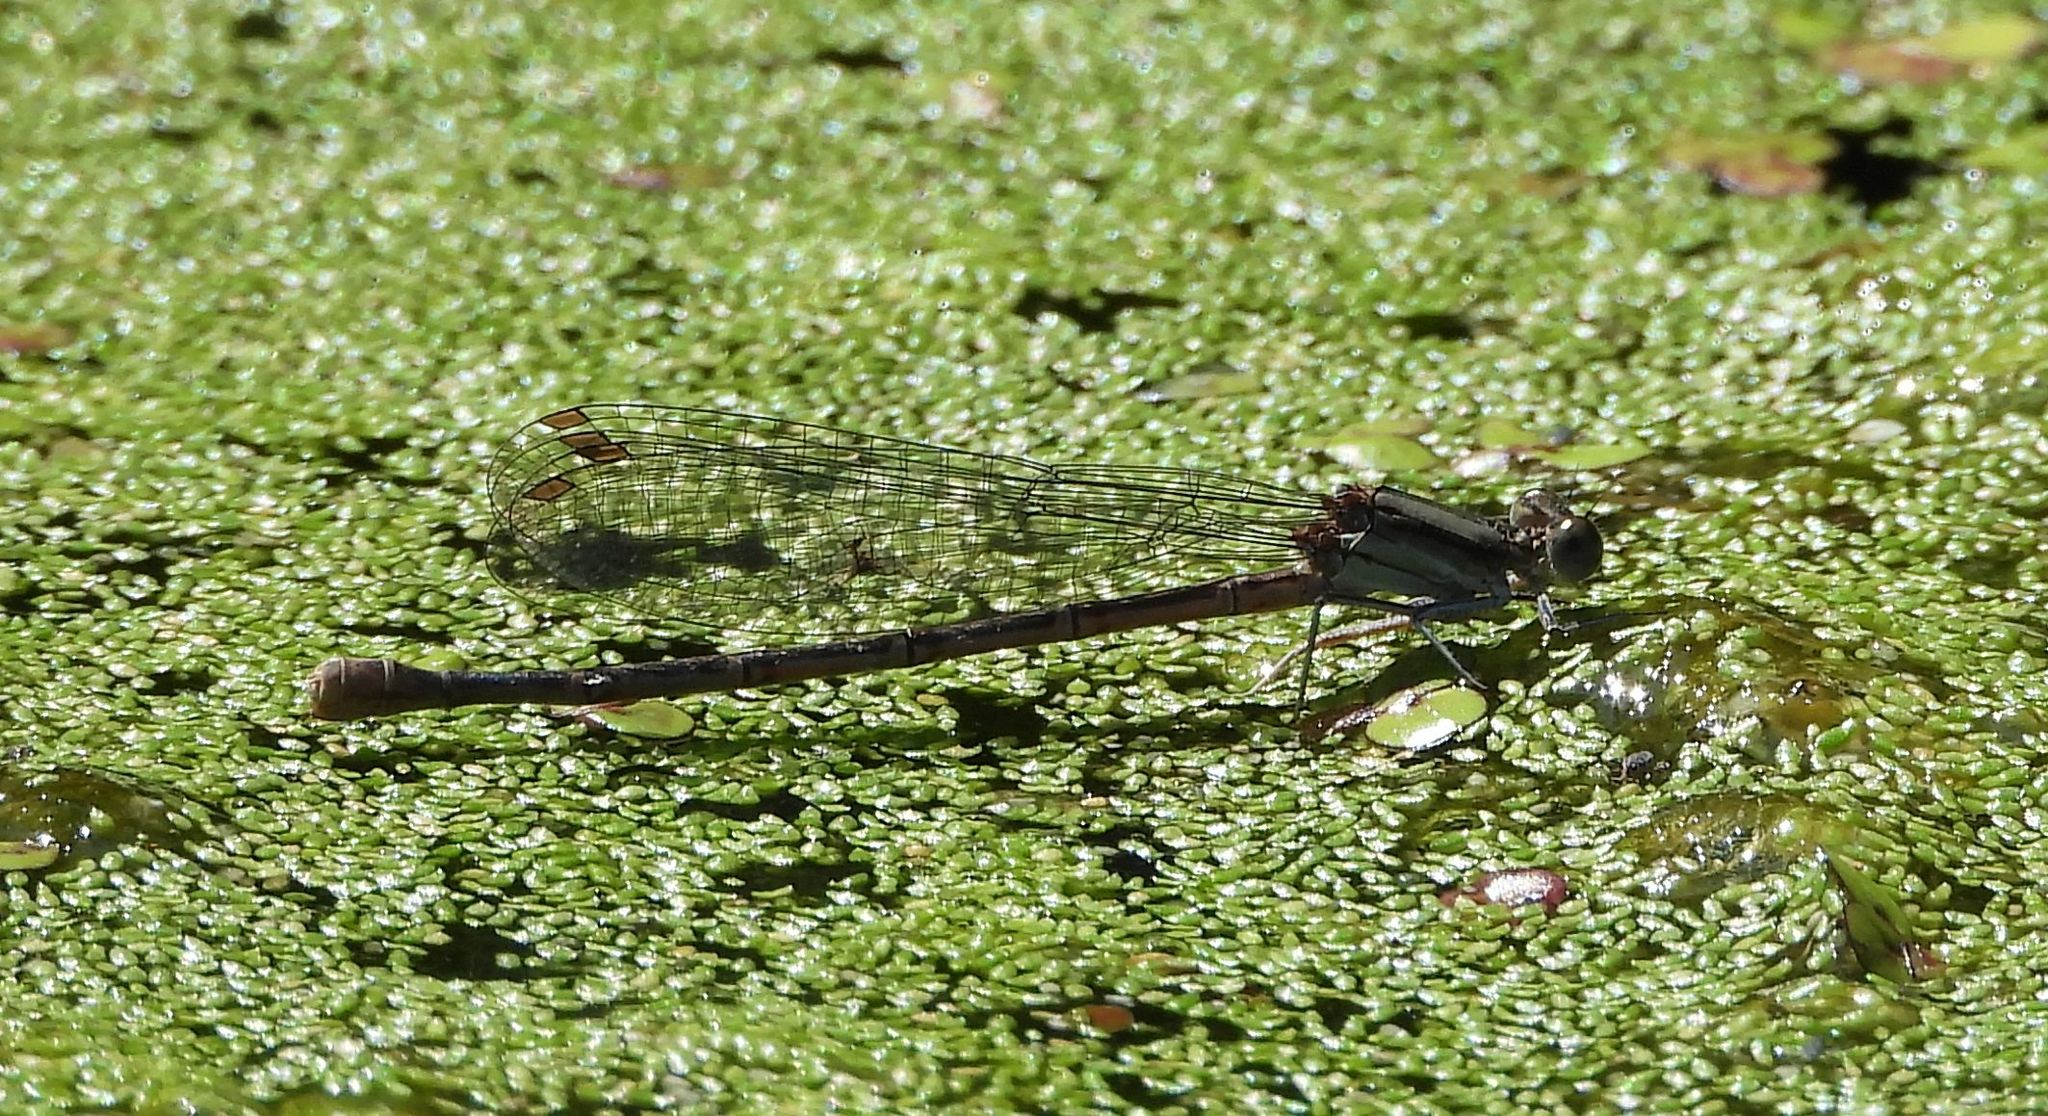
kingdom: Animalia
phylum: Arthropoda
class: Insecta
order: Odonata
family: Coenagrionidae
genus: Argia
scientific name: Argia fumipennis
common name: Variable dancer
